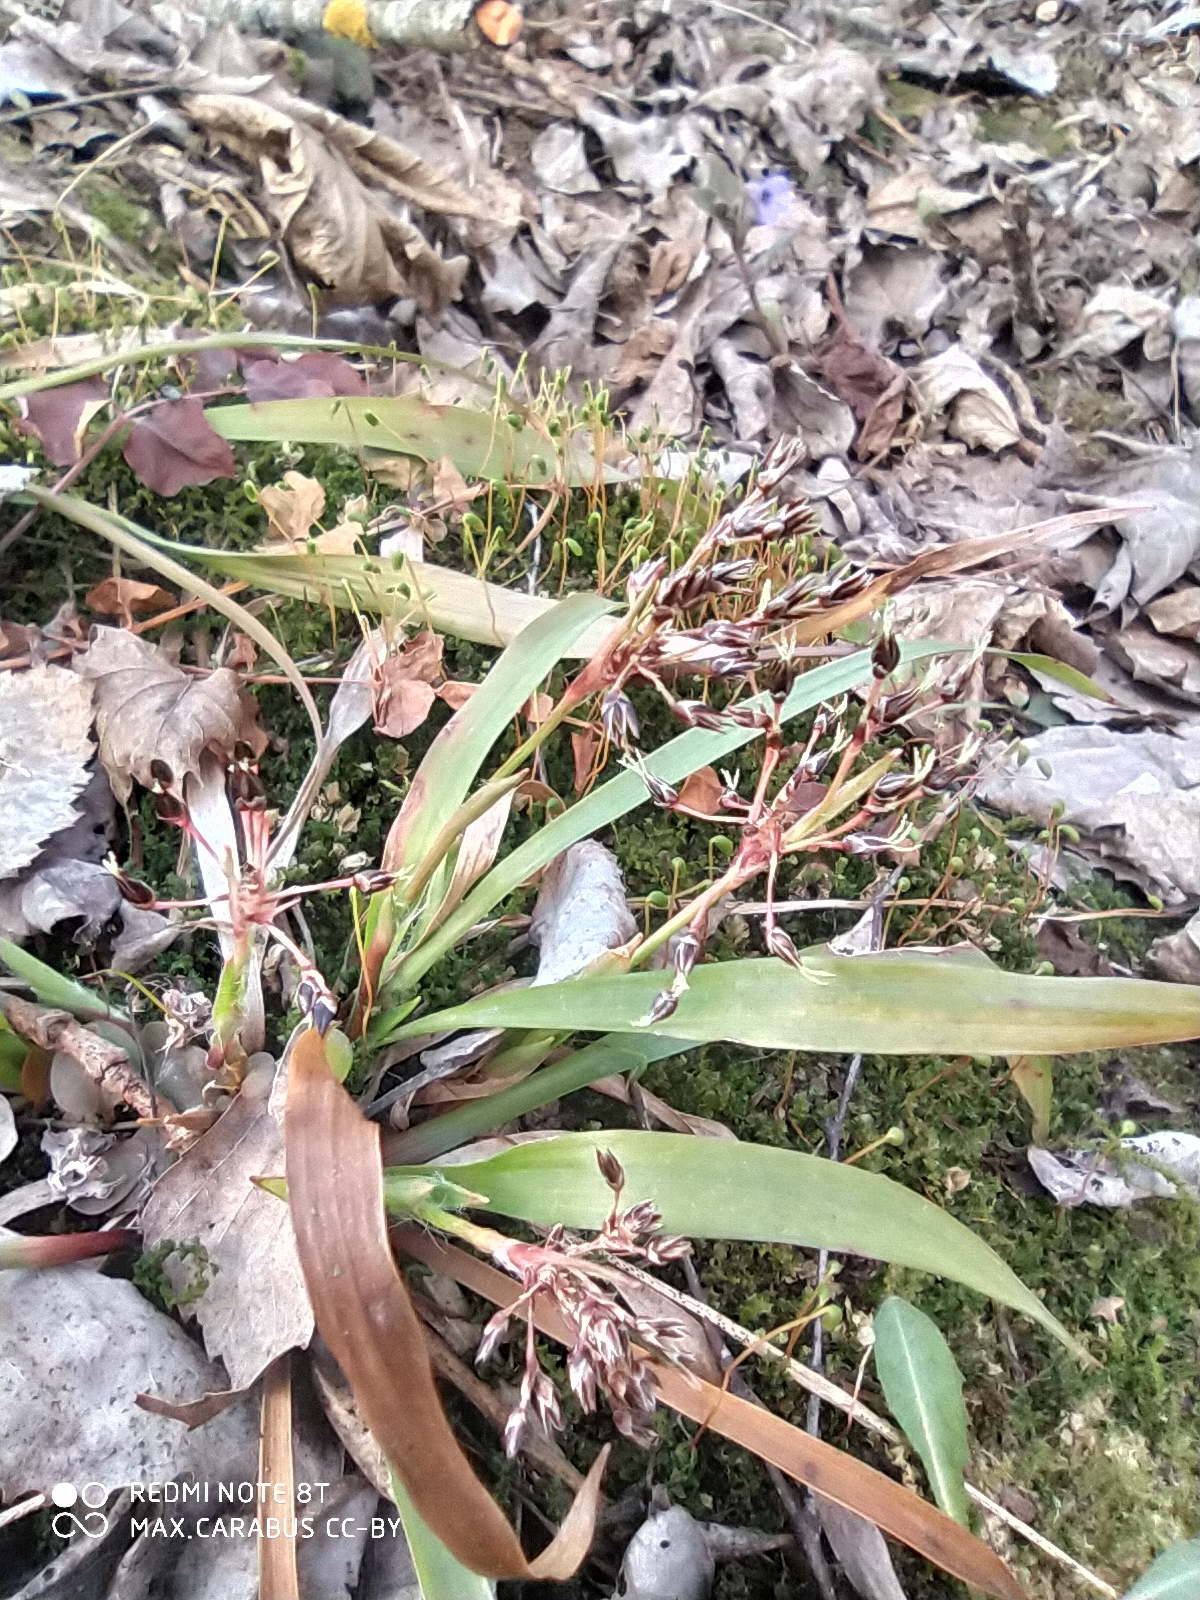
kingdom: Plantae
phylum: Tracheophyta
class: Liliopsida
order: Poales
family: Juncaceae
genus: Luzula
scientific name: Luzula pilosa
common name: Hairy wood-rush
